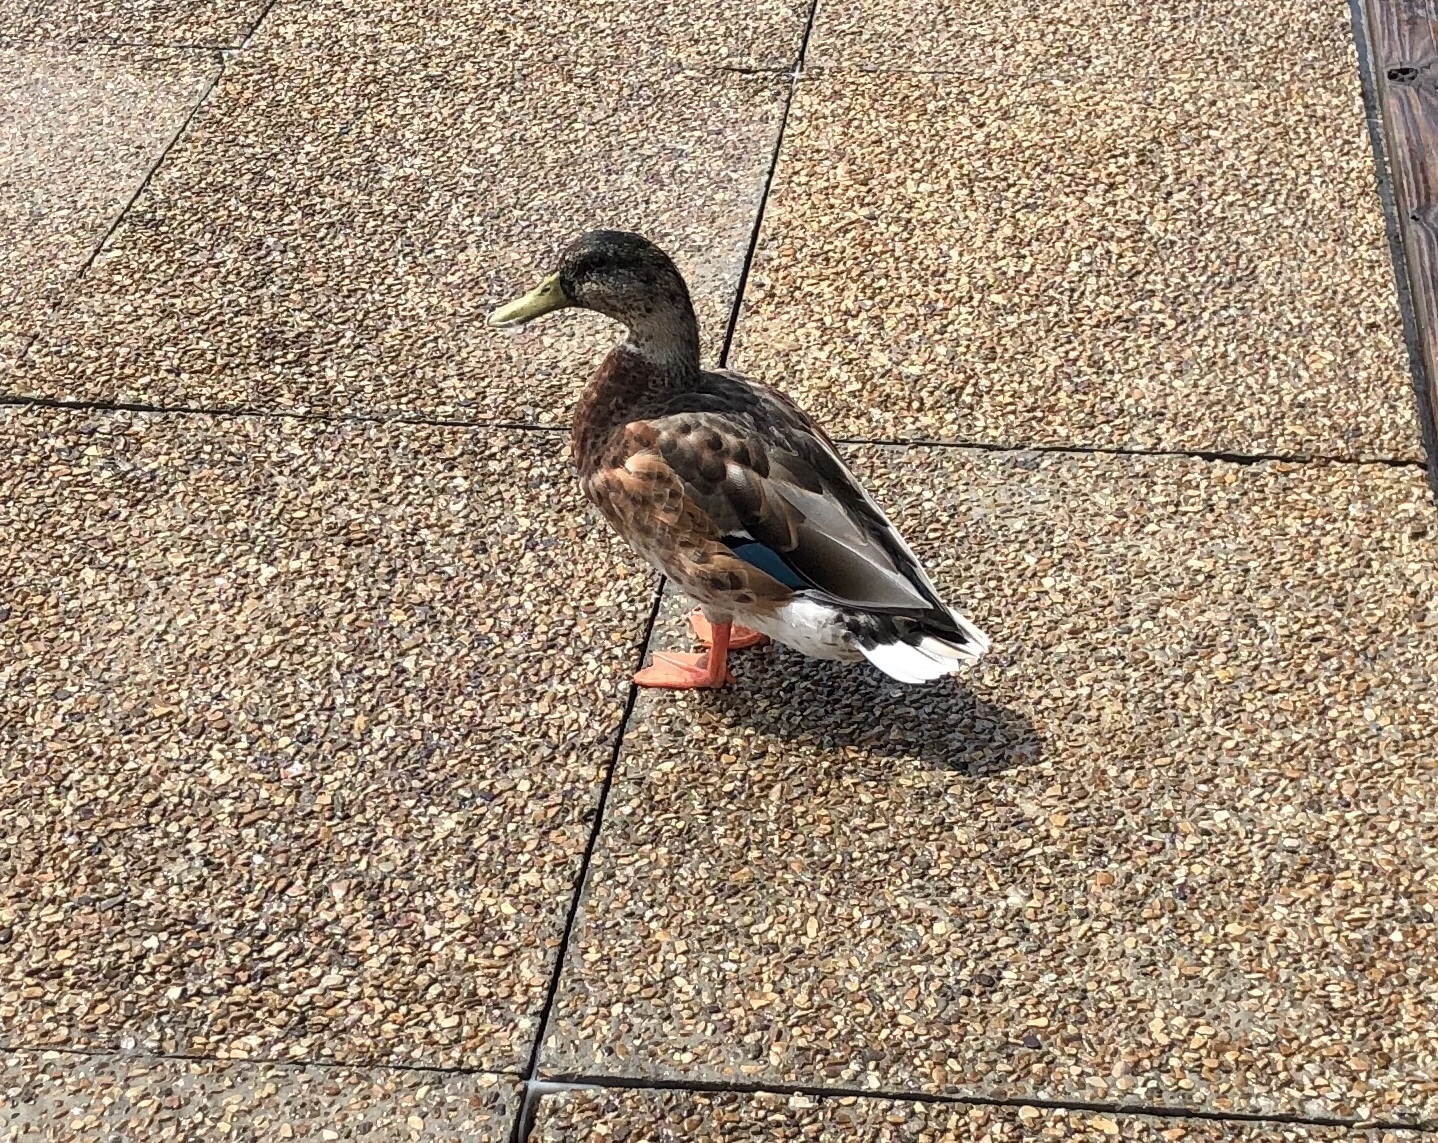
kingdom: Animalia
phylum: Chordata
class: Aves
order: Anseriformes
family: Anatidae
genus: Anas
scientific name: Anas platyrhynchos
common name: Mallard
